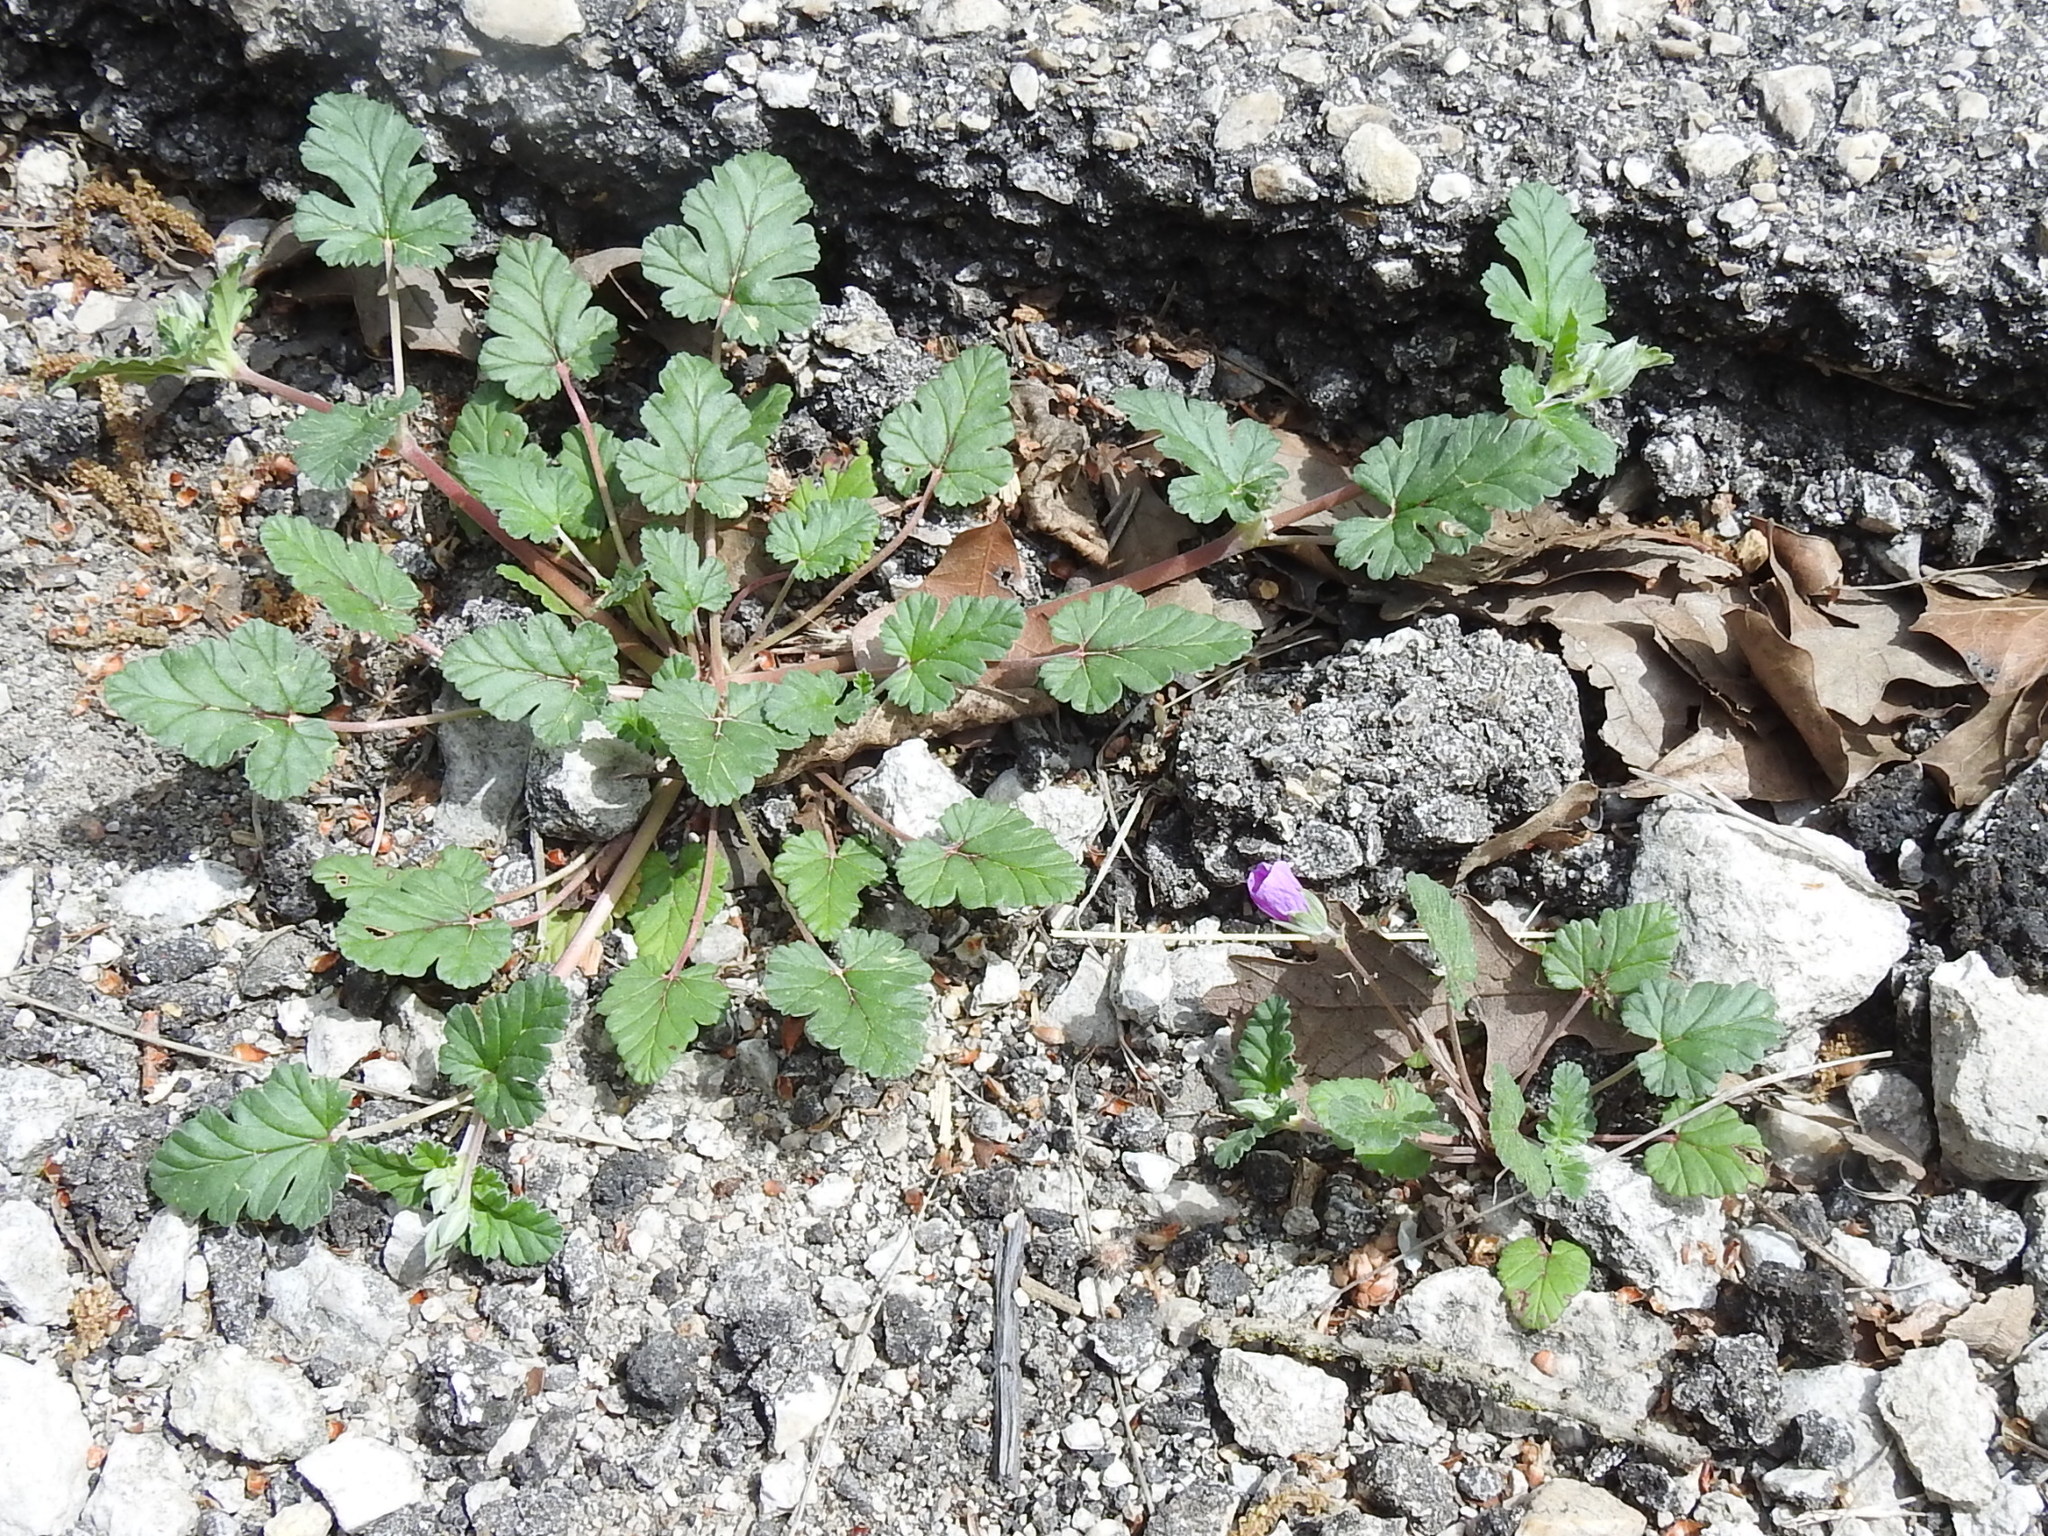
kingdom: Plantae
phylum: Tracheophyta
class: Magnoliopsida
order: Geraniales
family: Geraniaceae
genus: Erodium
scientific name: Erodium texanum
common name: Texas stork's-bill
